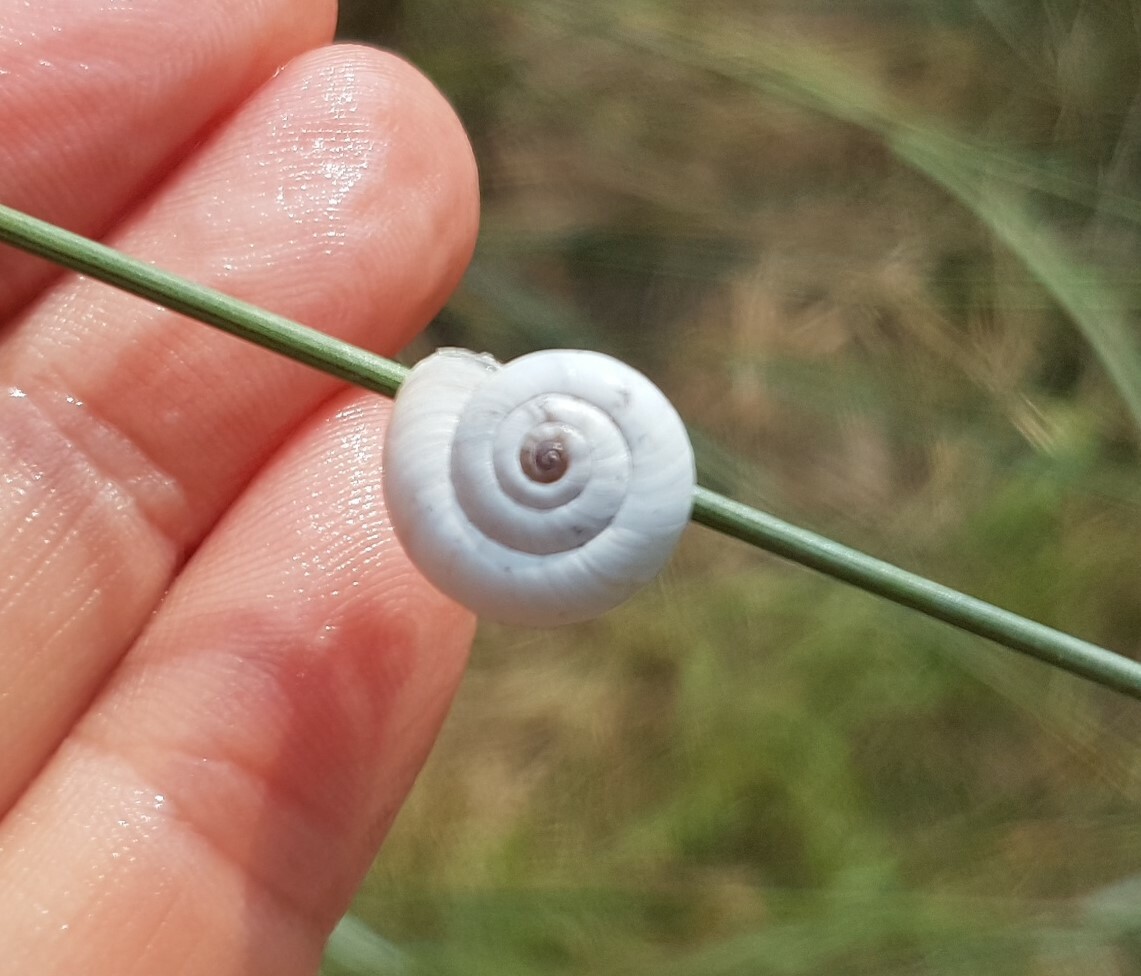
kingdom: Animalia
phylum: Mollusca
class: Gastropoda
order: Stylommatophora
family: Geomitridae
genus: Xeropicta
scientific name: Xeropicta derbentina
